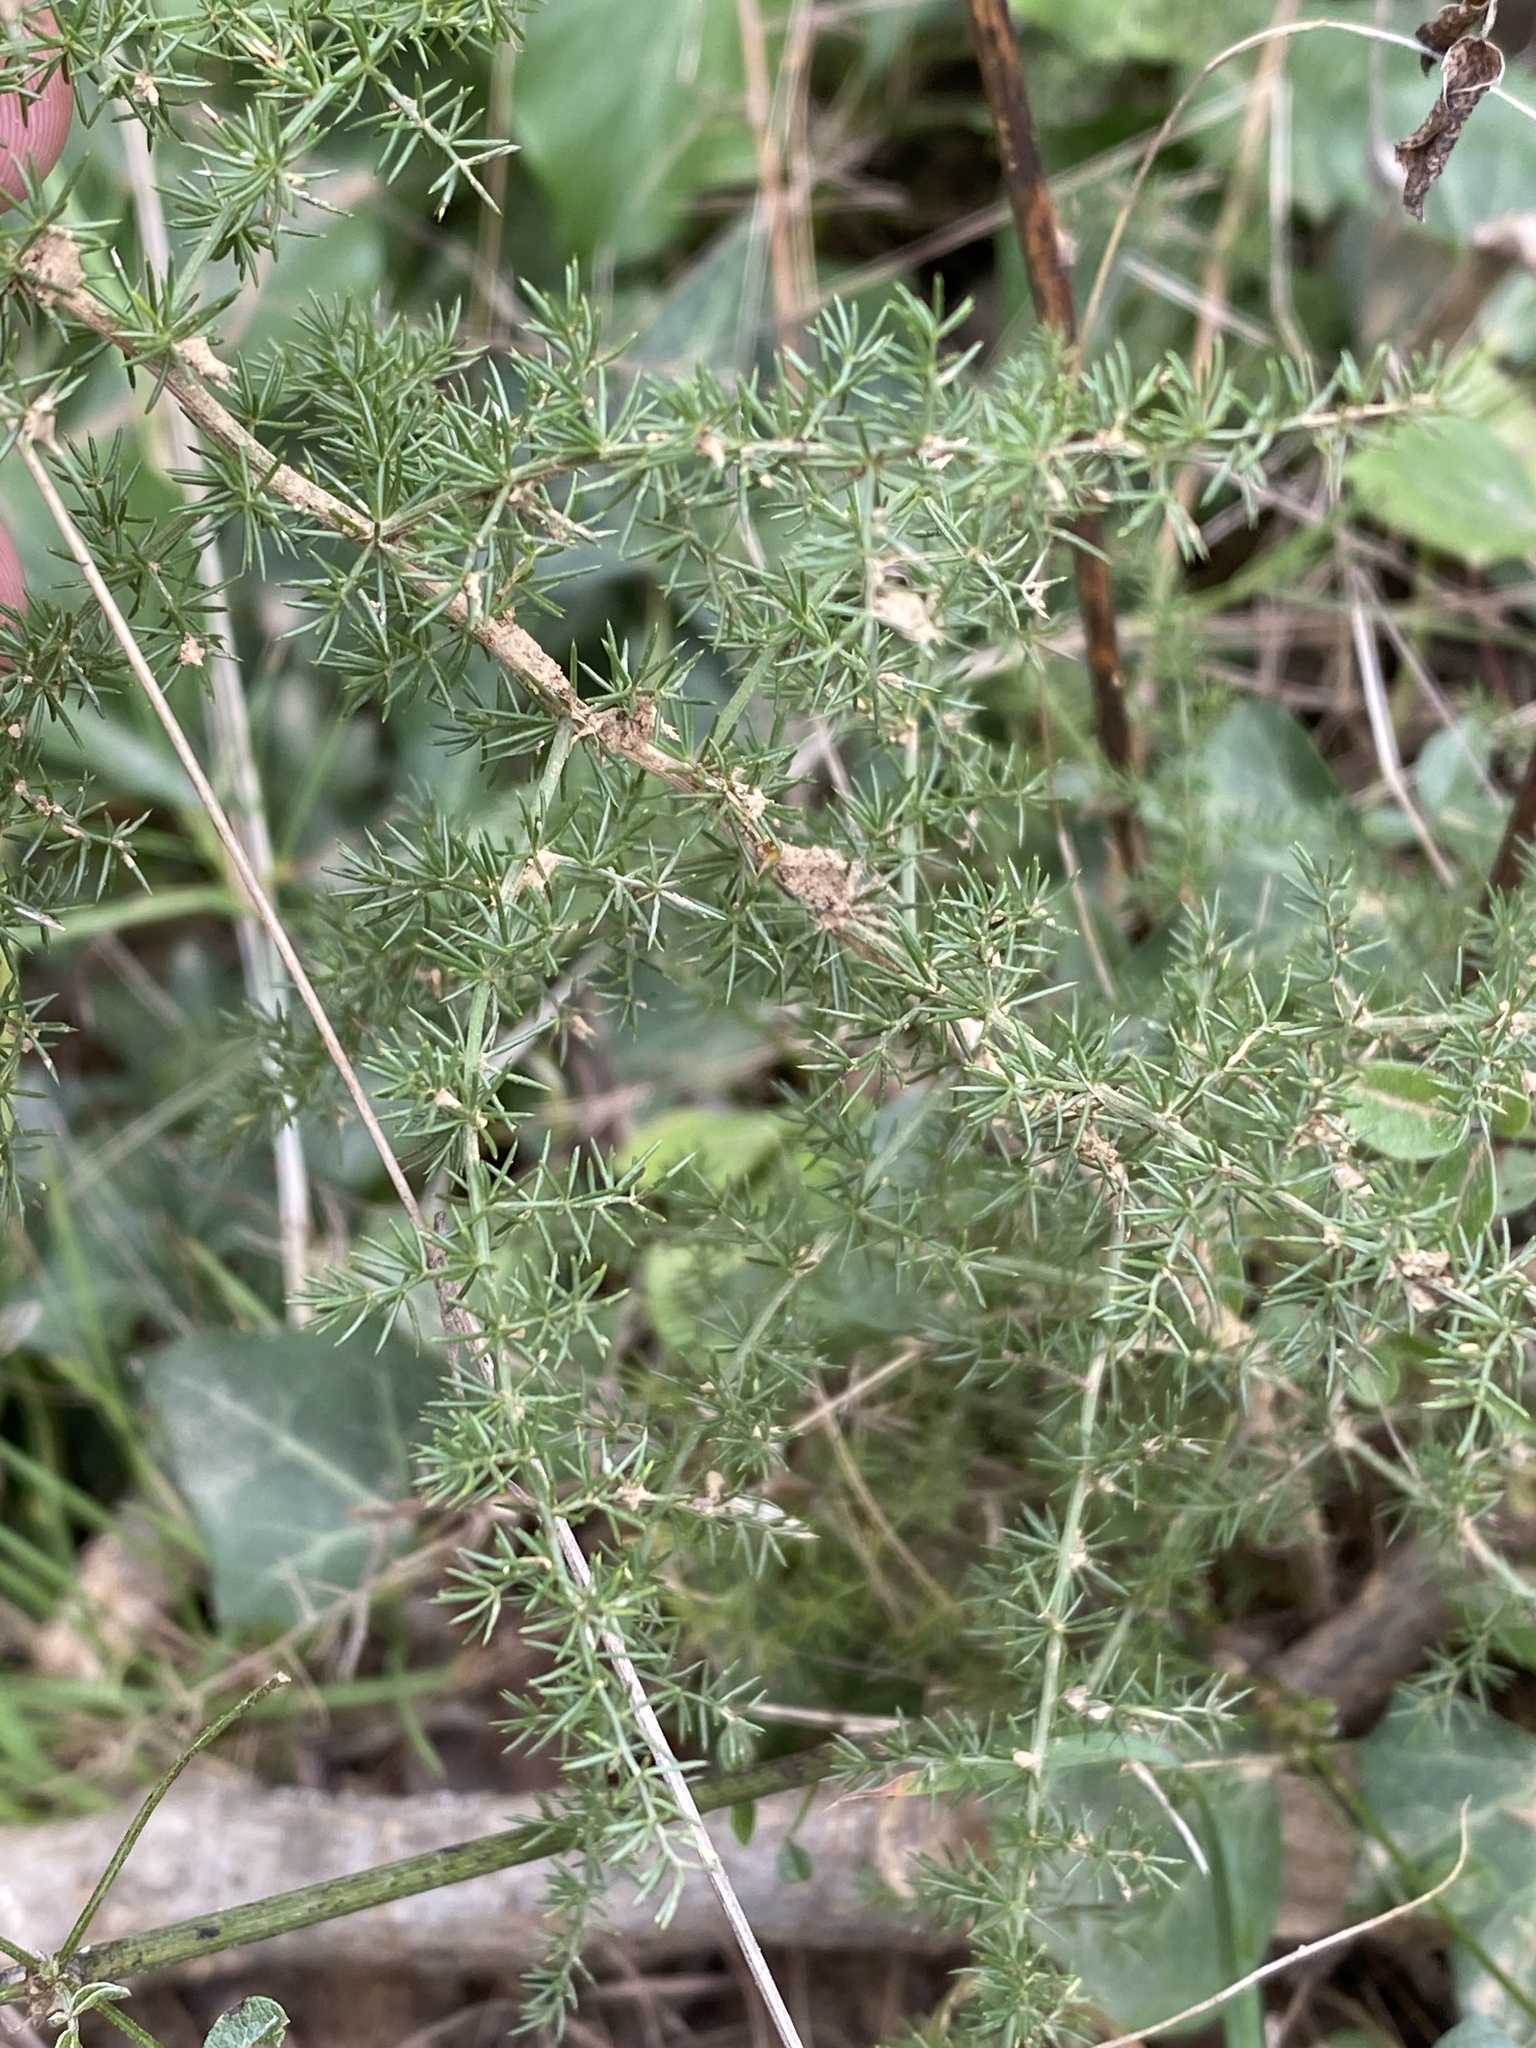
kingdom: Plantae
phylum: Tracheophyta
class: Liliopsida
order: Asparagales
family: Asparagaceae
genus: Asparagus
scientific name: Asparagus acutifolius
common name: Wild asparagus
